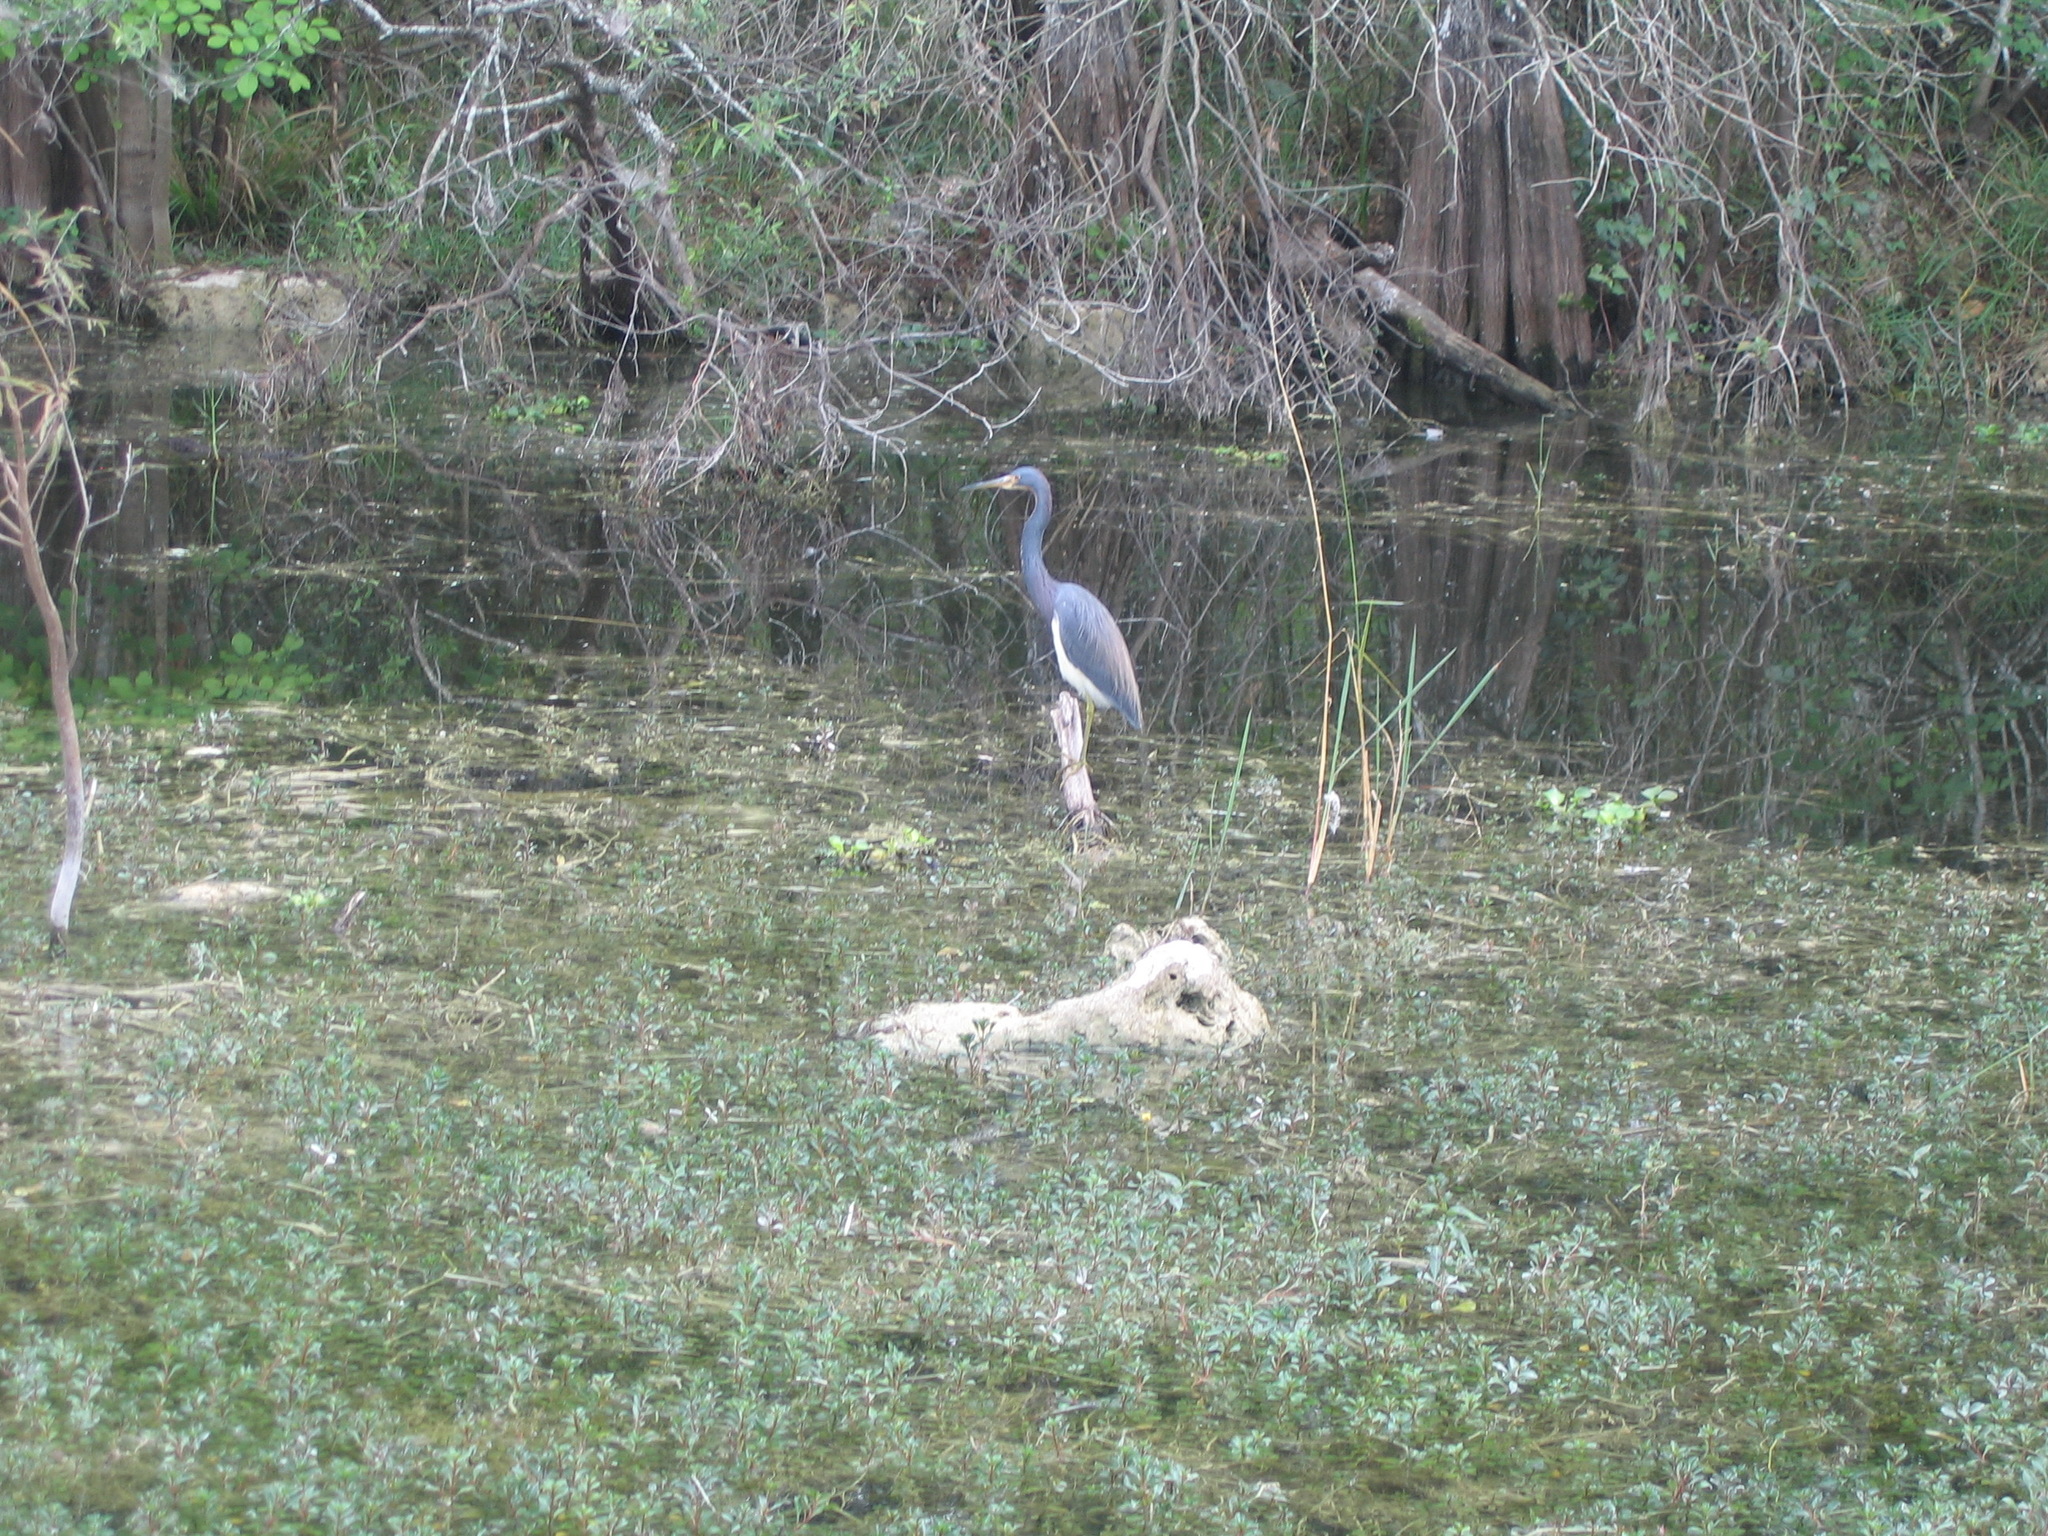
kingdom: Animalia
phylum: Chordata
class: Aves
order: Pelecaniformes
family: Ardeidae
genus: Egretta
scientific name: Egretta tricolor
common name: Tricolored heron
